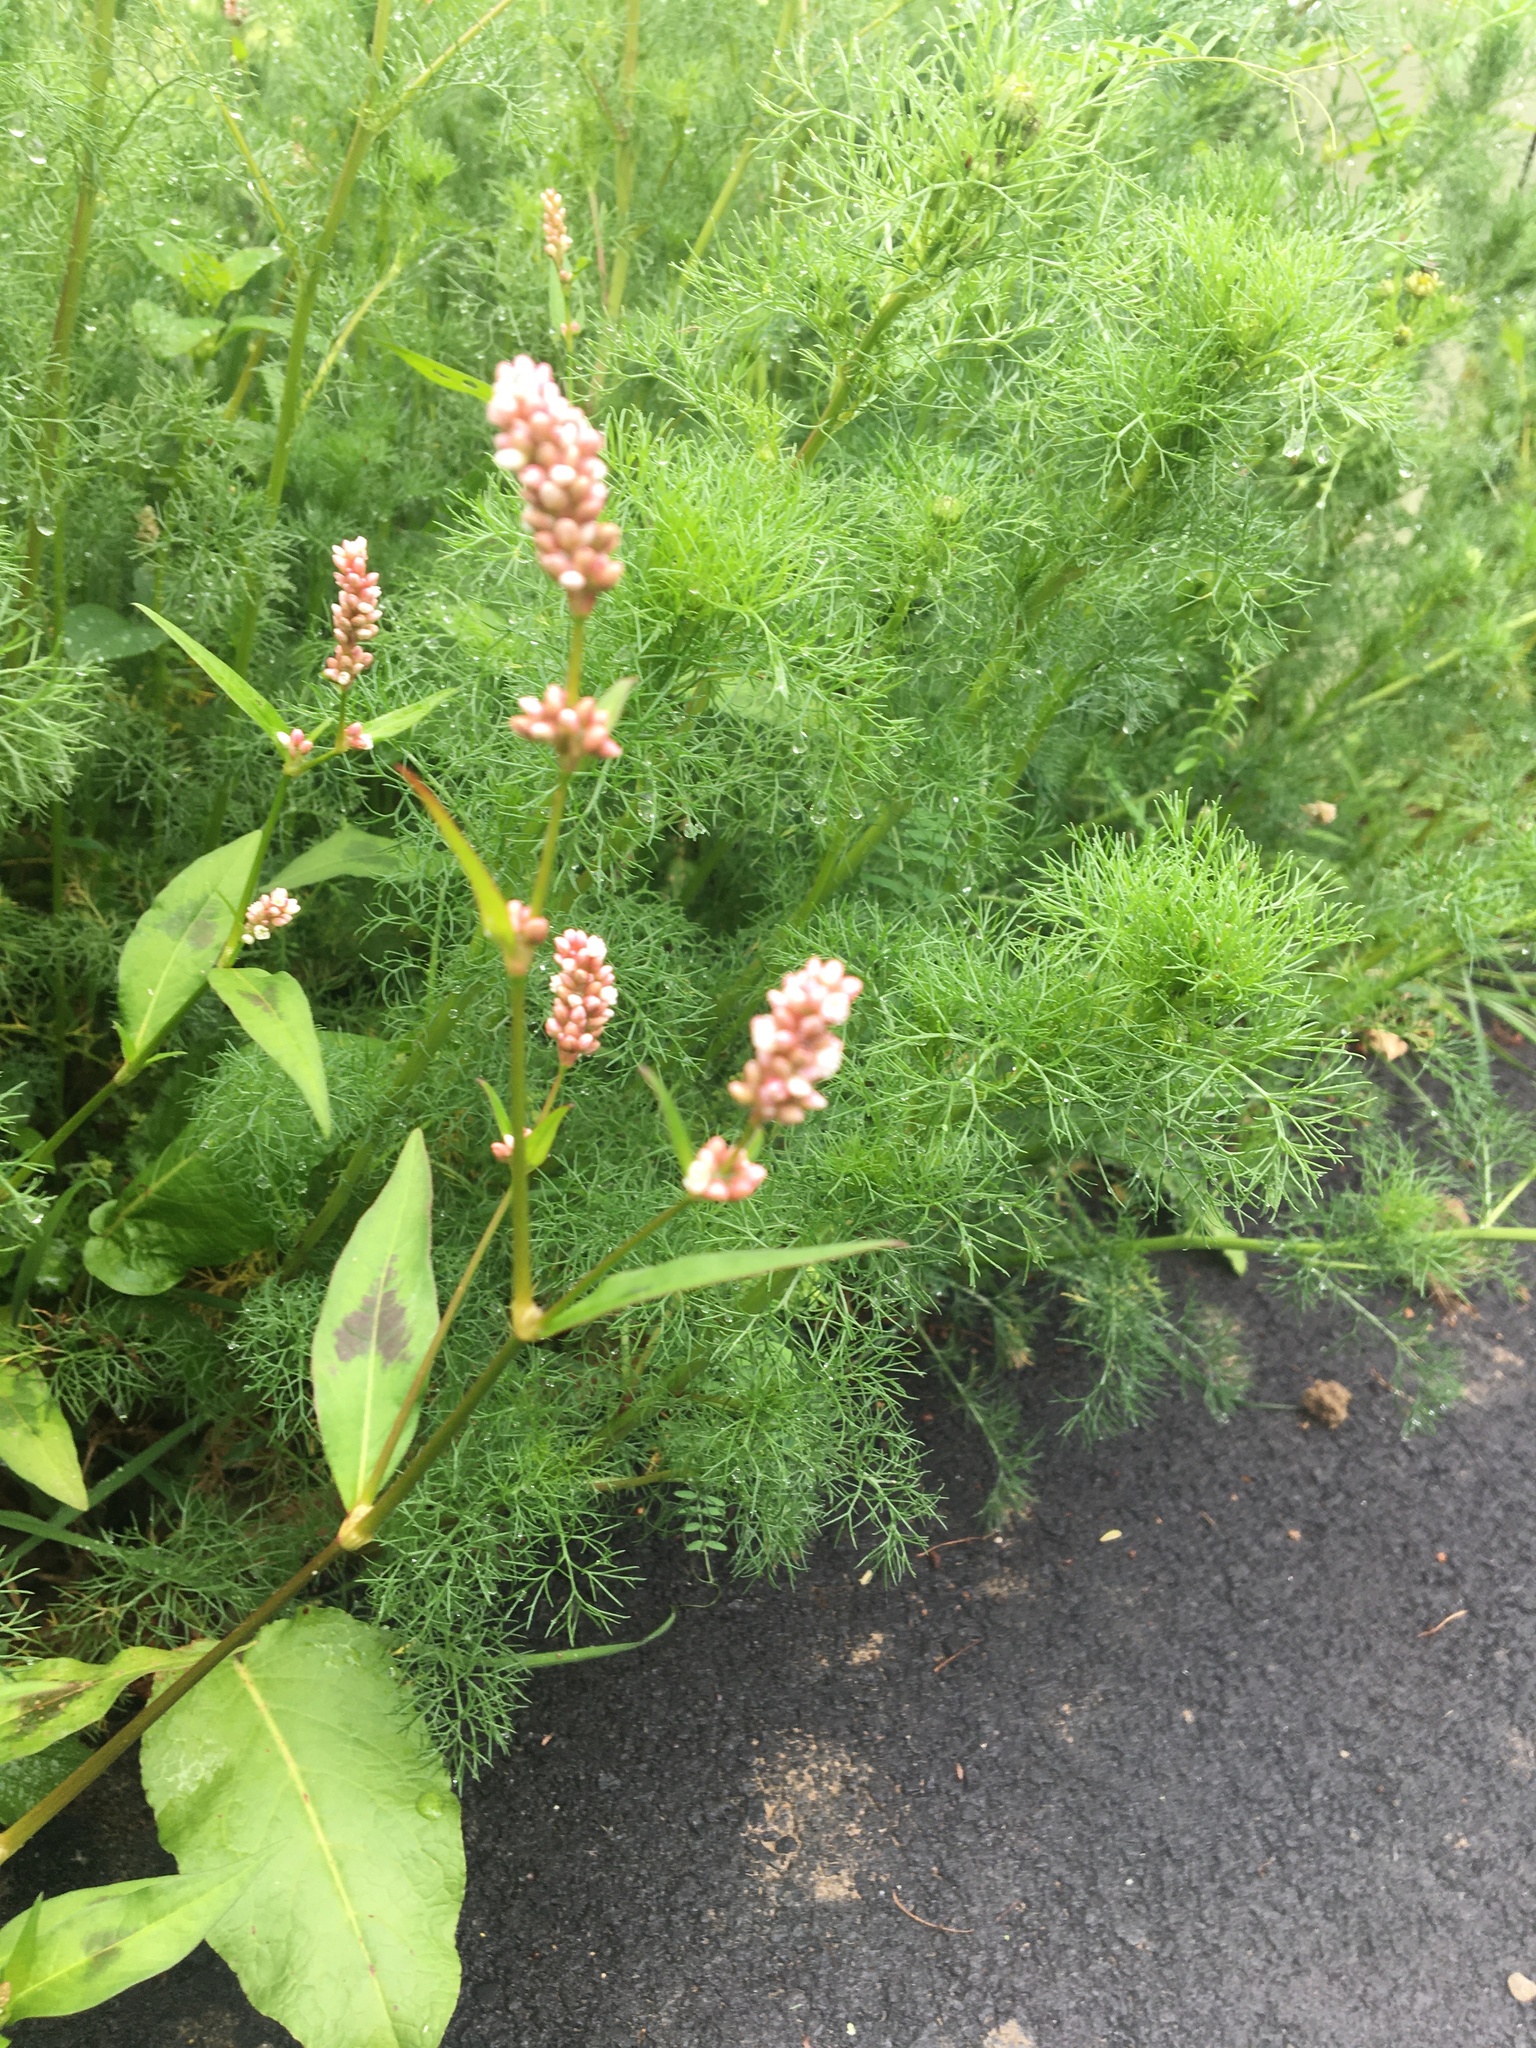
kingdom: Plantae
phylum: Tracheophyta
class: Magnoliopsida
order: Caryophyllales
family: Polygonaceae
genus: Persicaria
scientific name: Persicaria maculosa
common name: Redshank
